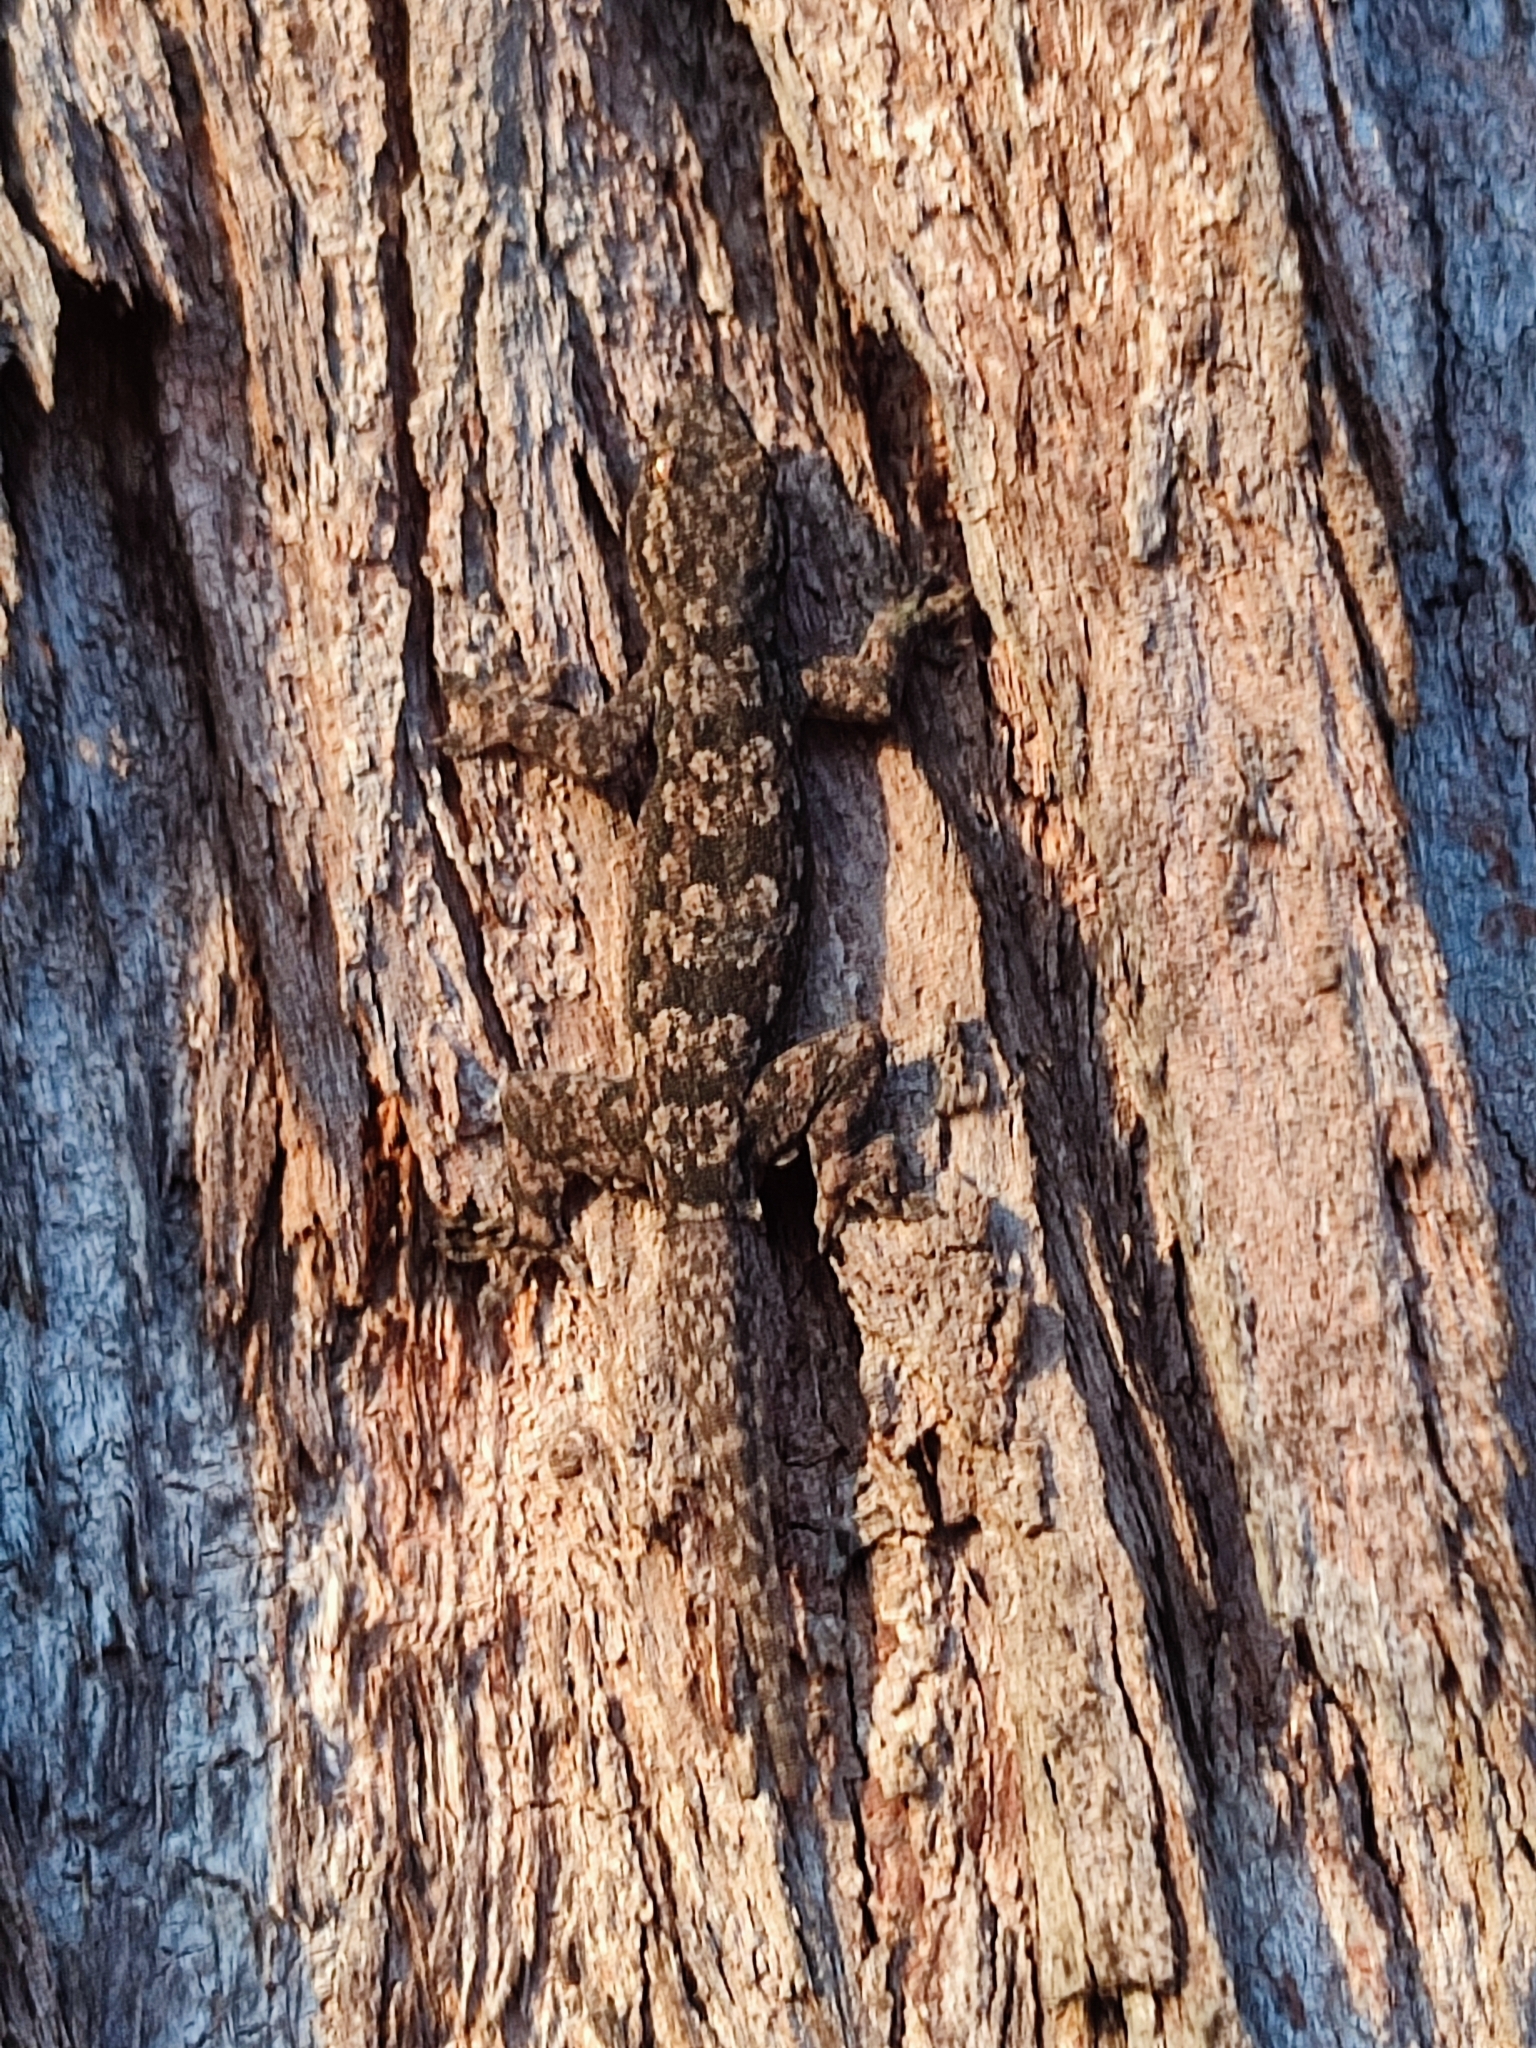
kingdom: Animalia
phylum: Chordata
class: Squamata
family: Gekkonidae
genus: Hemidactylus
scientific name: Hemidactylus platyurus
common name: Flat-tailed house gecko
